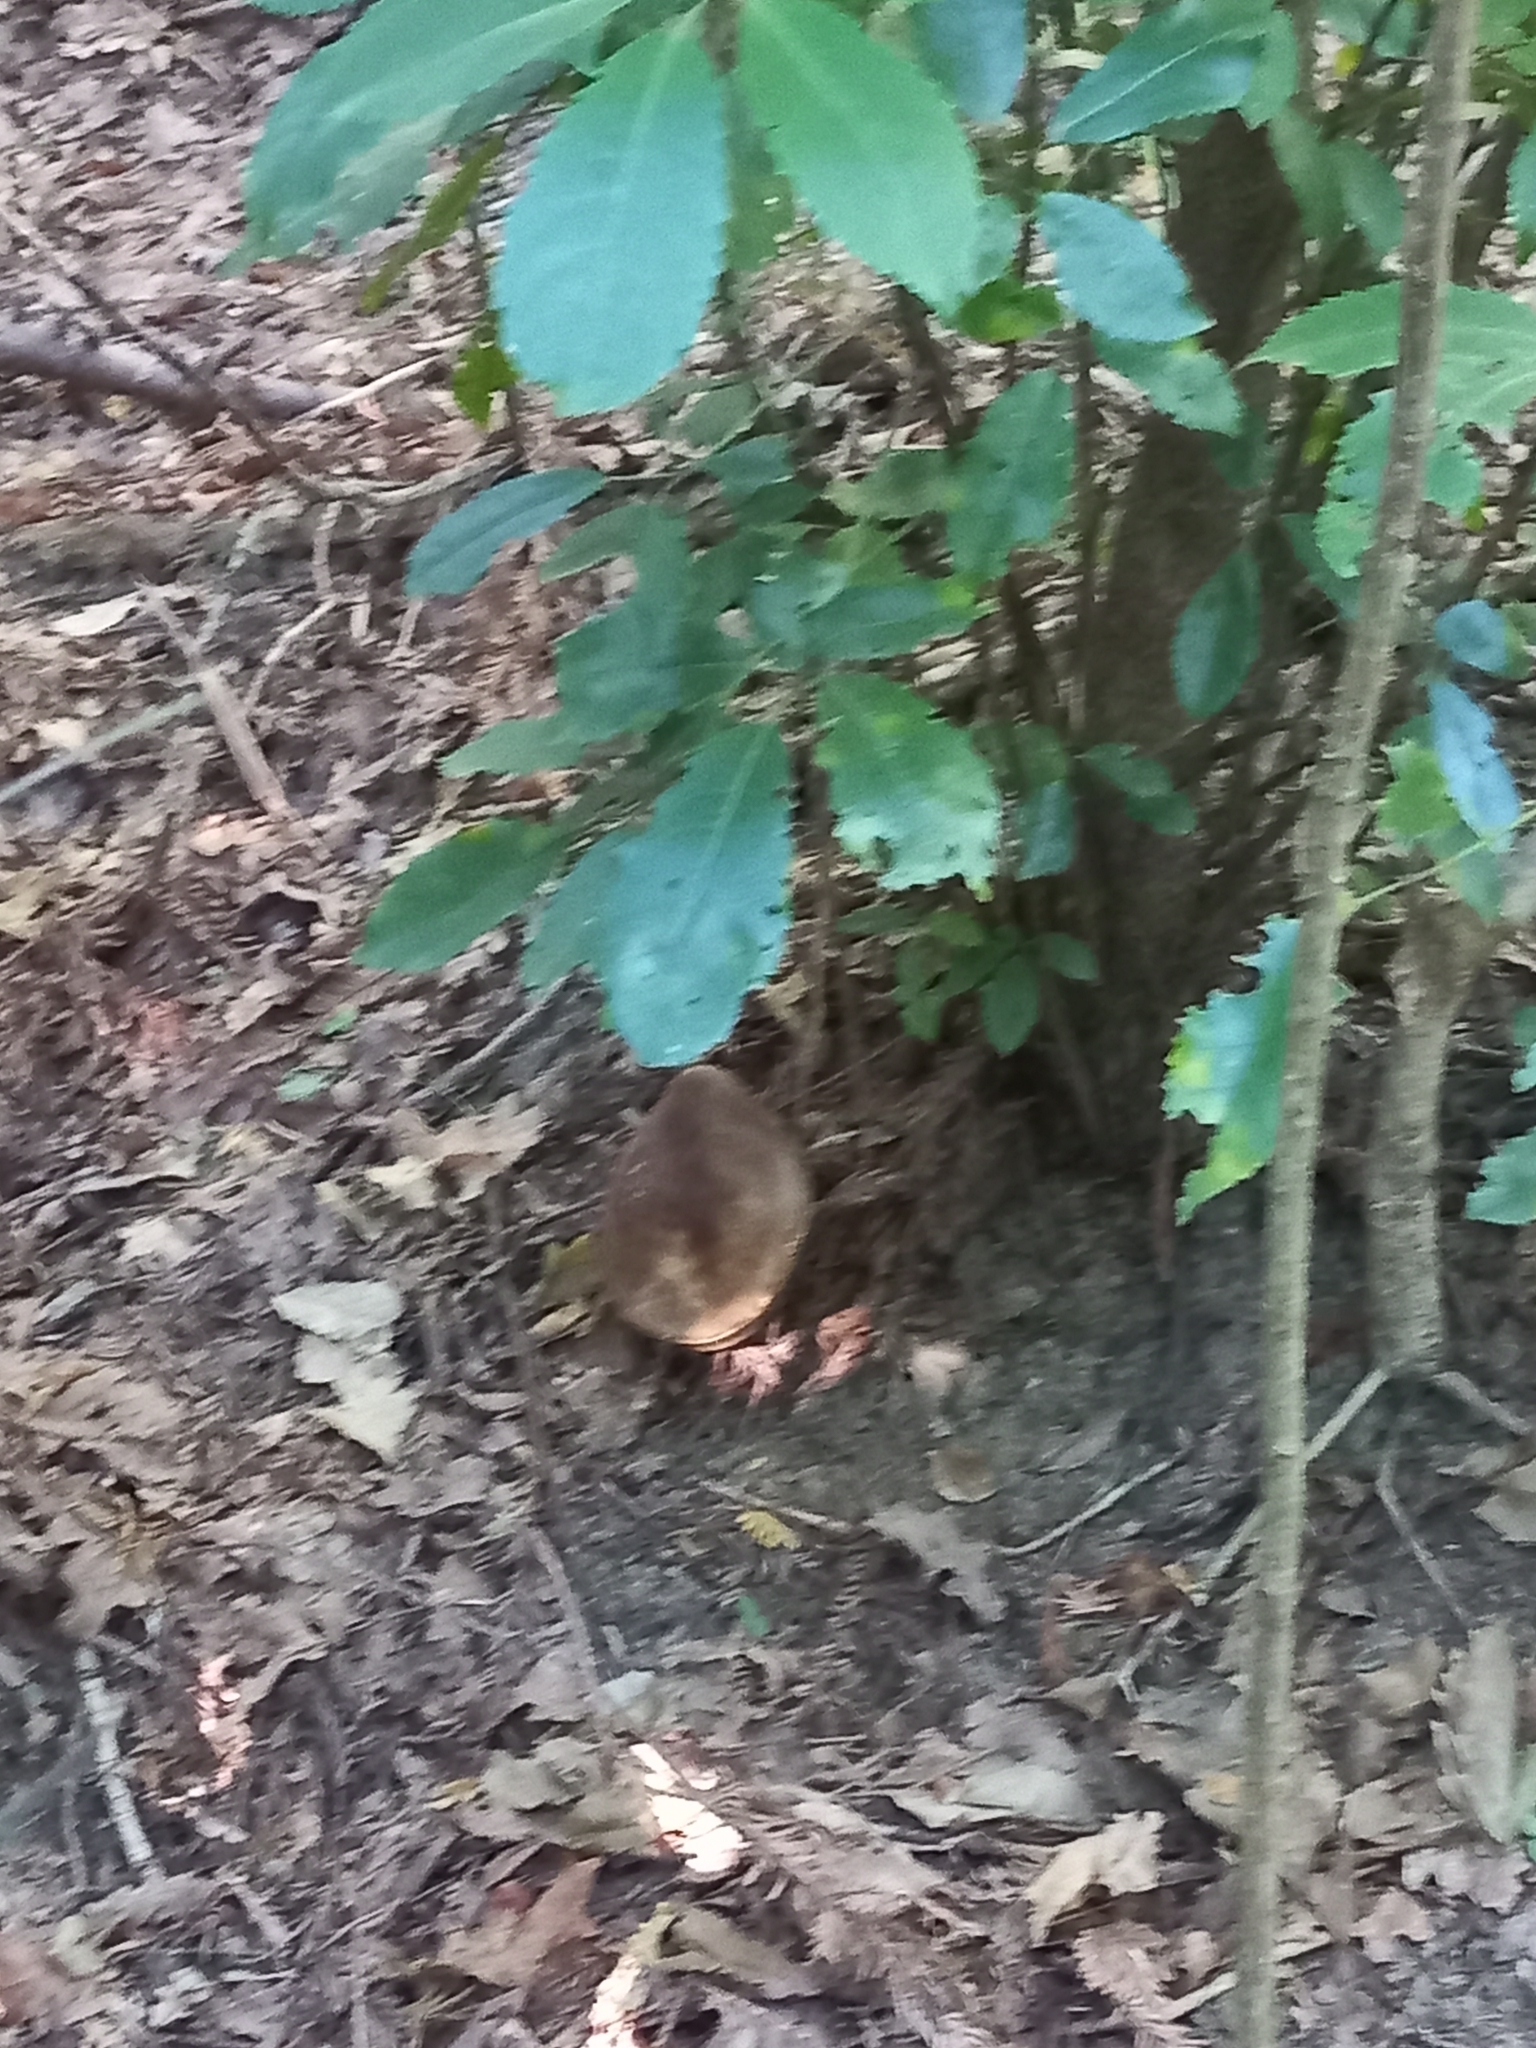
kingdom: Fungi
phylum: Basidiomycota
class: Agaricomycetes
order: Boletales
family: Boletinellaceae
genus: Phlebopus
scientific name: Phlebopus marginatus
